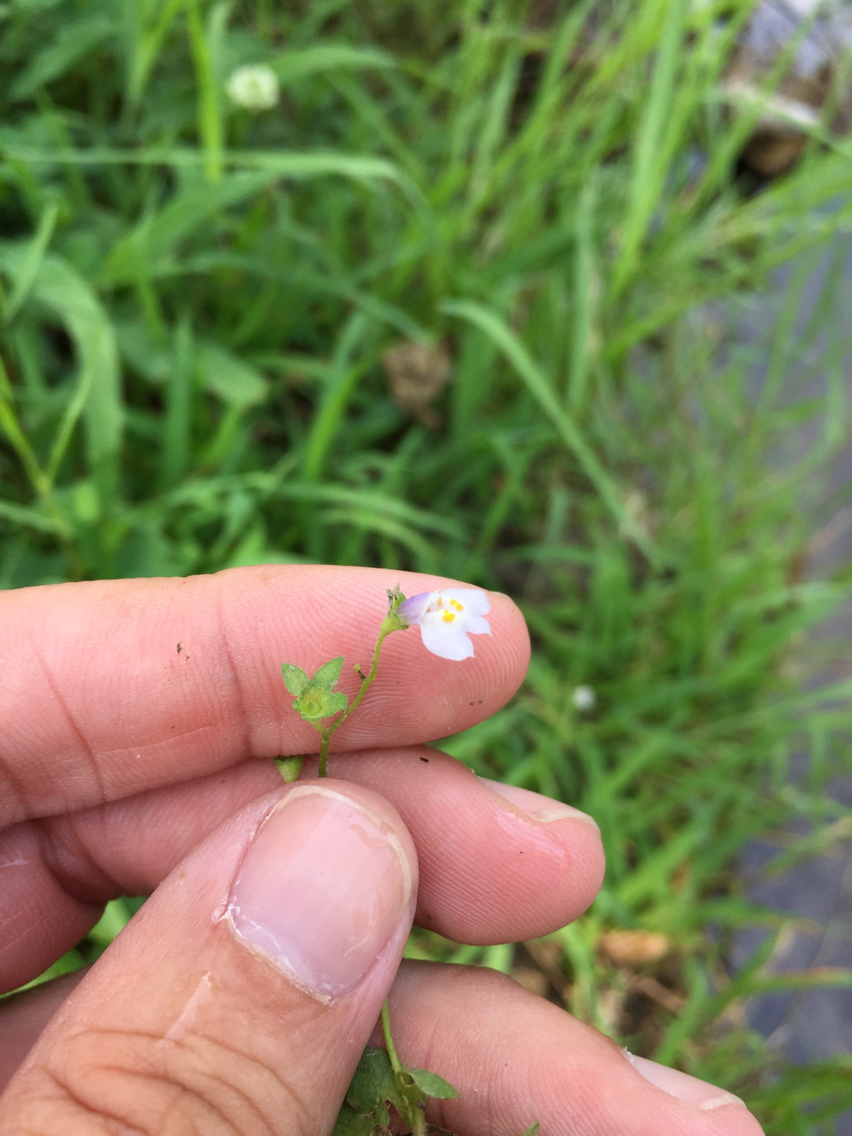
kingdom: Plantae
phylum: Tracheophyta
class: Magnoliopsida
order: Lamiales
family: Mazaceae
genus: Mazus
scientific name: Mazus pumilus
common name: Japanese mazus
